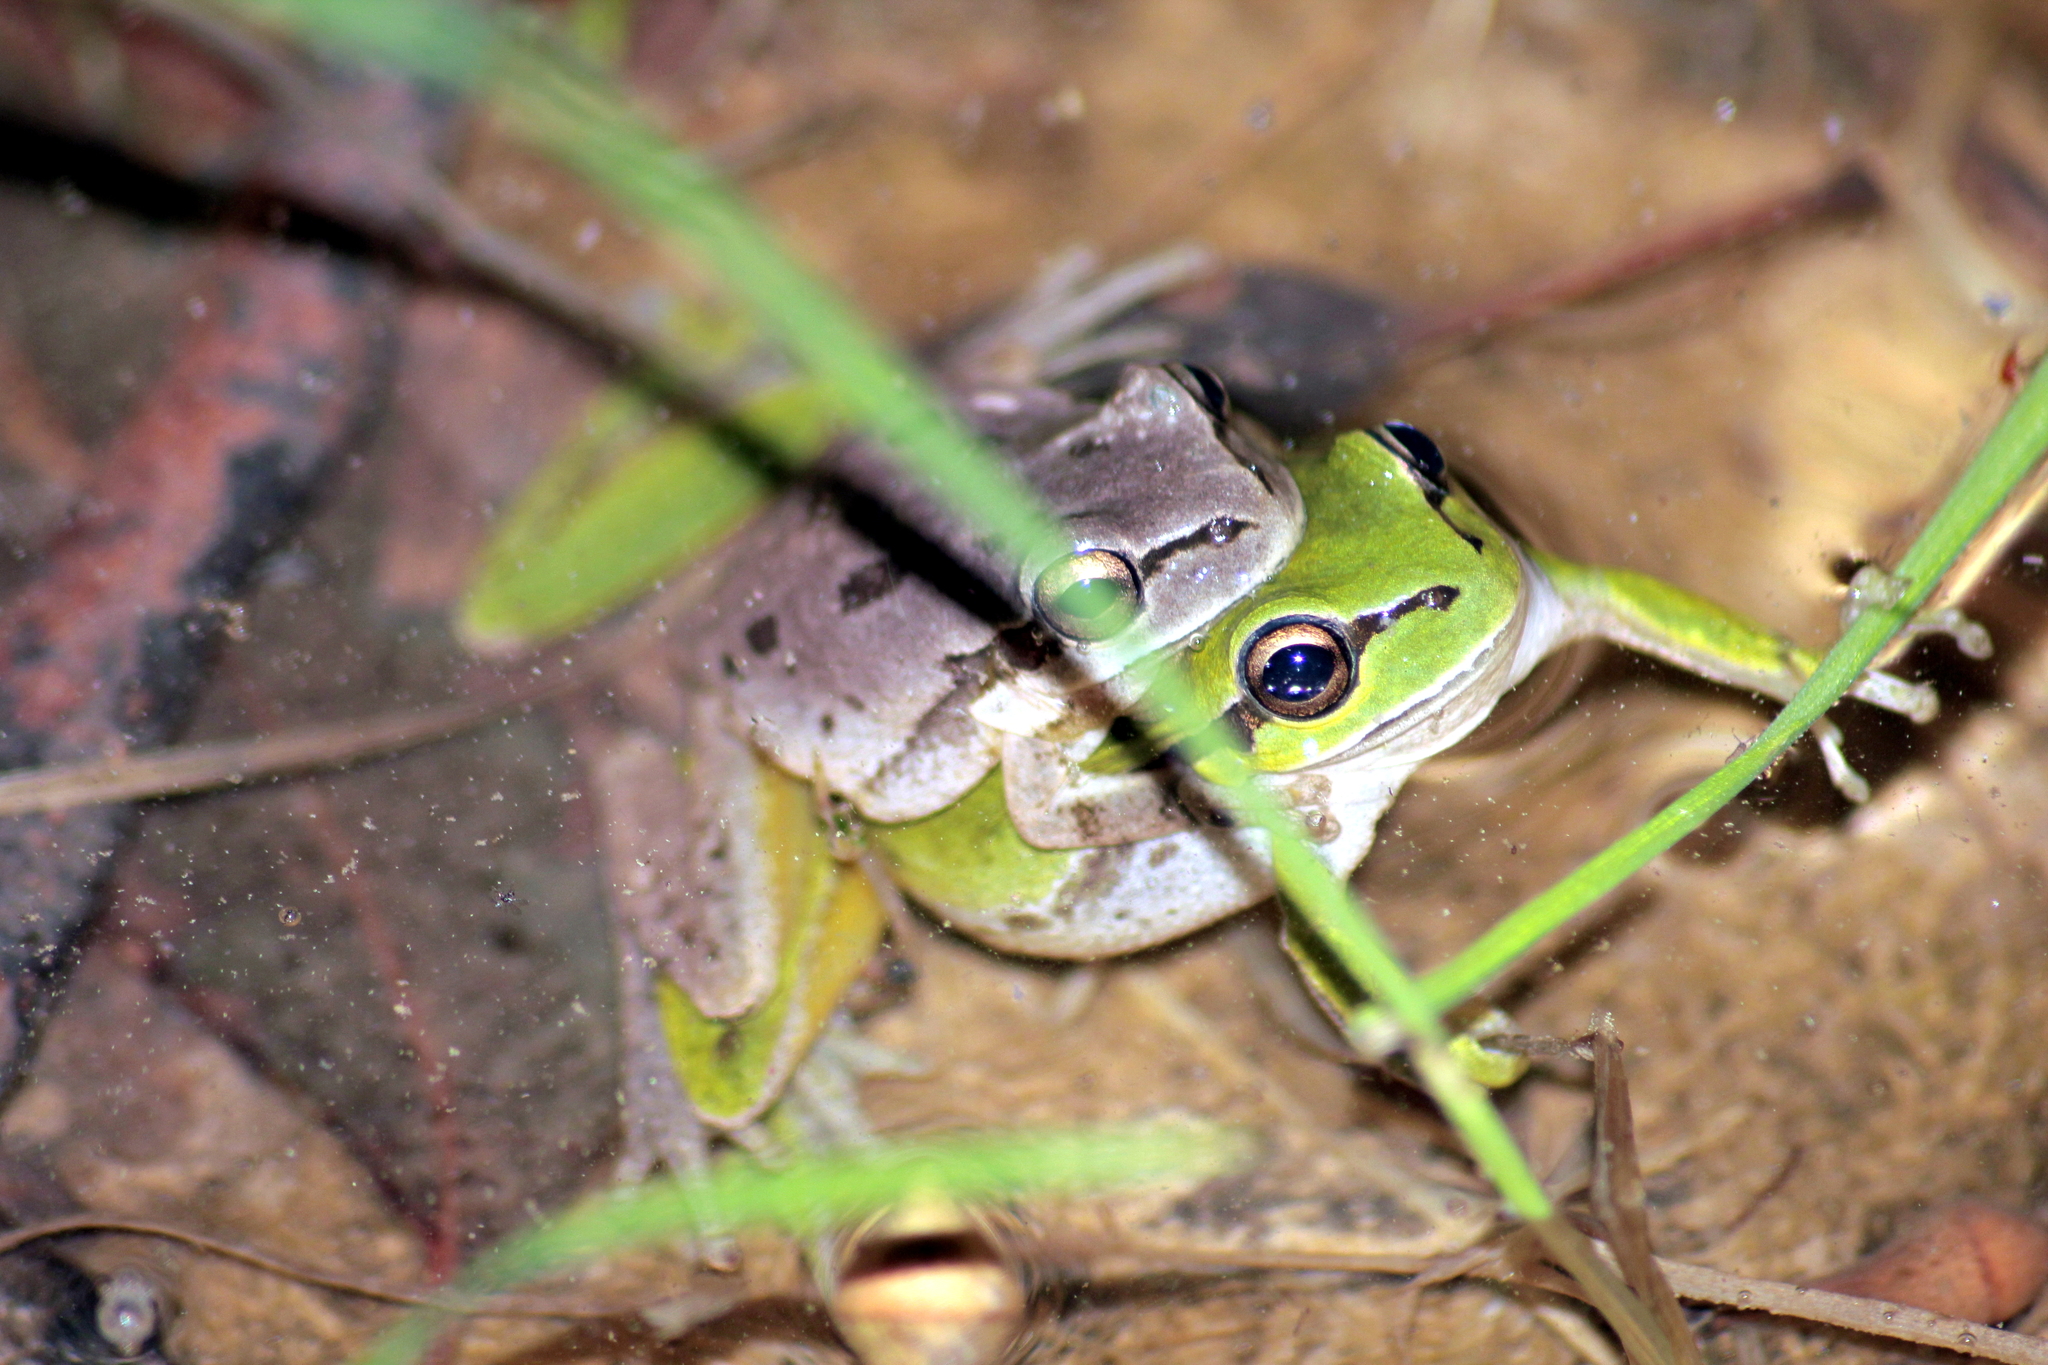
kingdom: Animalia
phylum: Chordata
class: Amphibia
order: Anura
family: Hylidae
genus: Hyla
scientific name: Hyla savignyi
